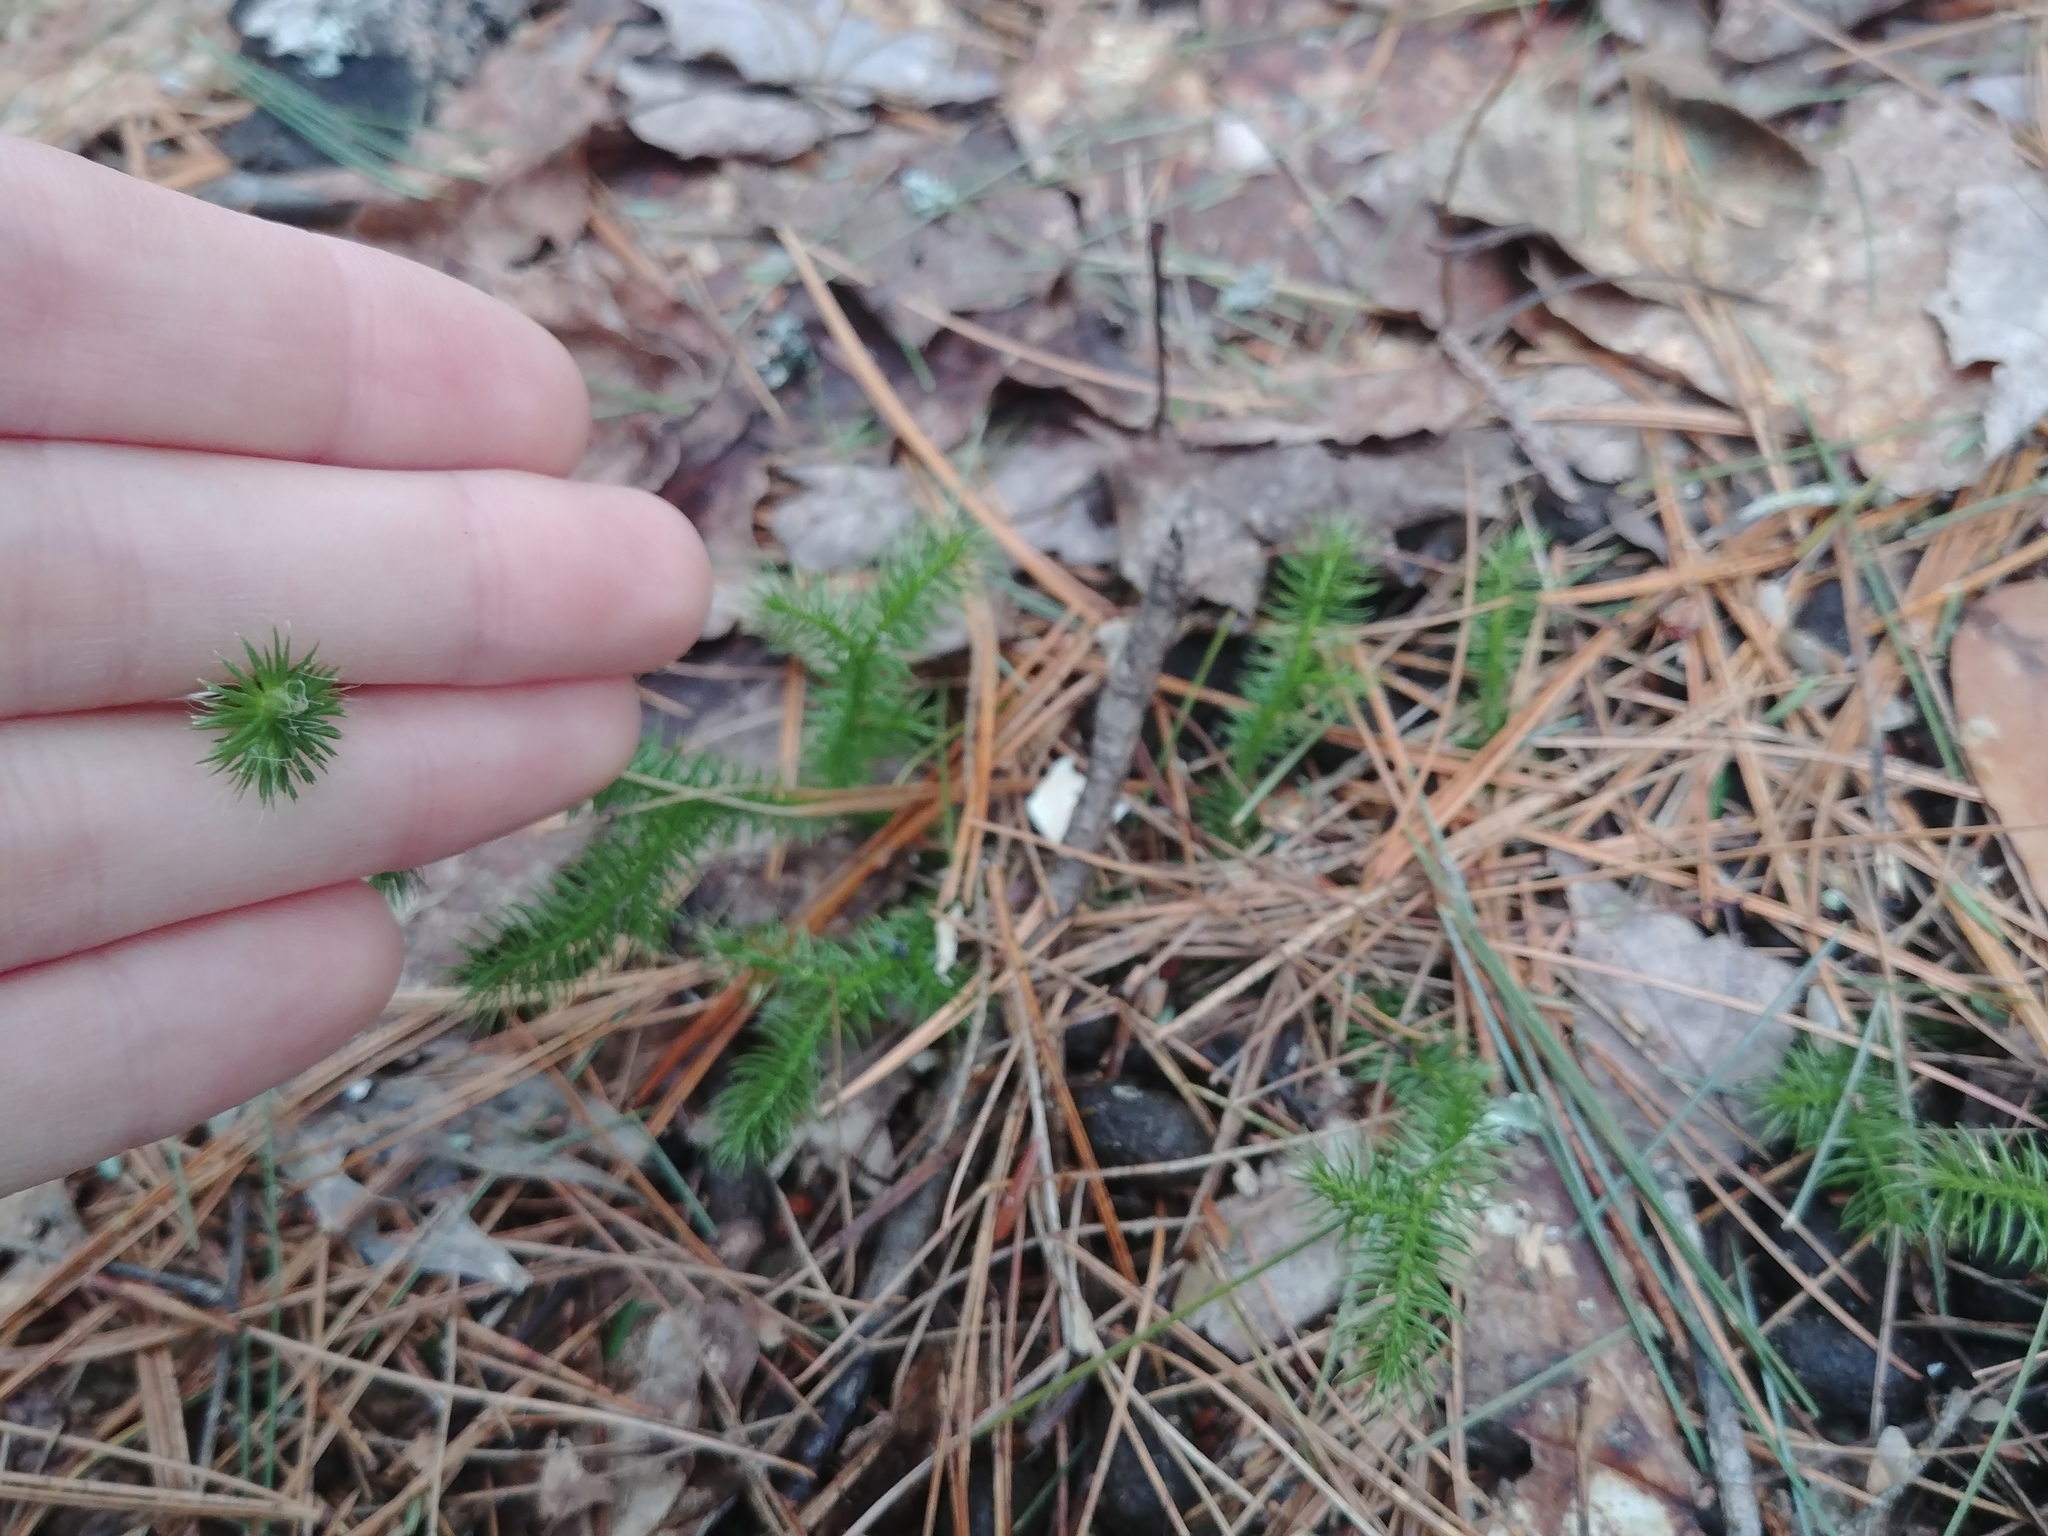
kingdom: Plantae
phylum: Tracheophyta
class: Lycopodiopsida
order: Lycopodiales
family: Lycopodiaceae
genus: Lycopodium
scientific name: Lycopodium clavatum
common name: Stag's-horn clubmoss
